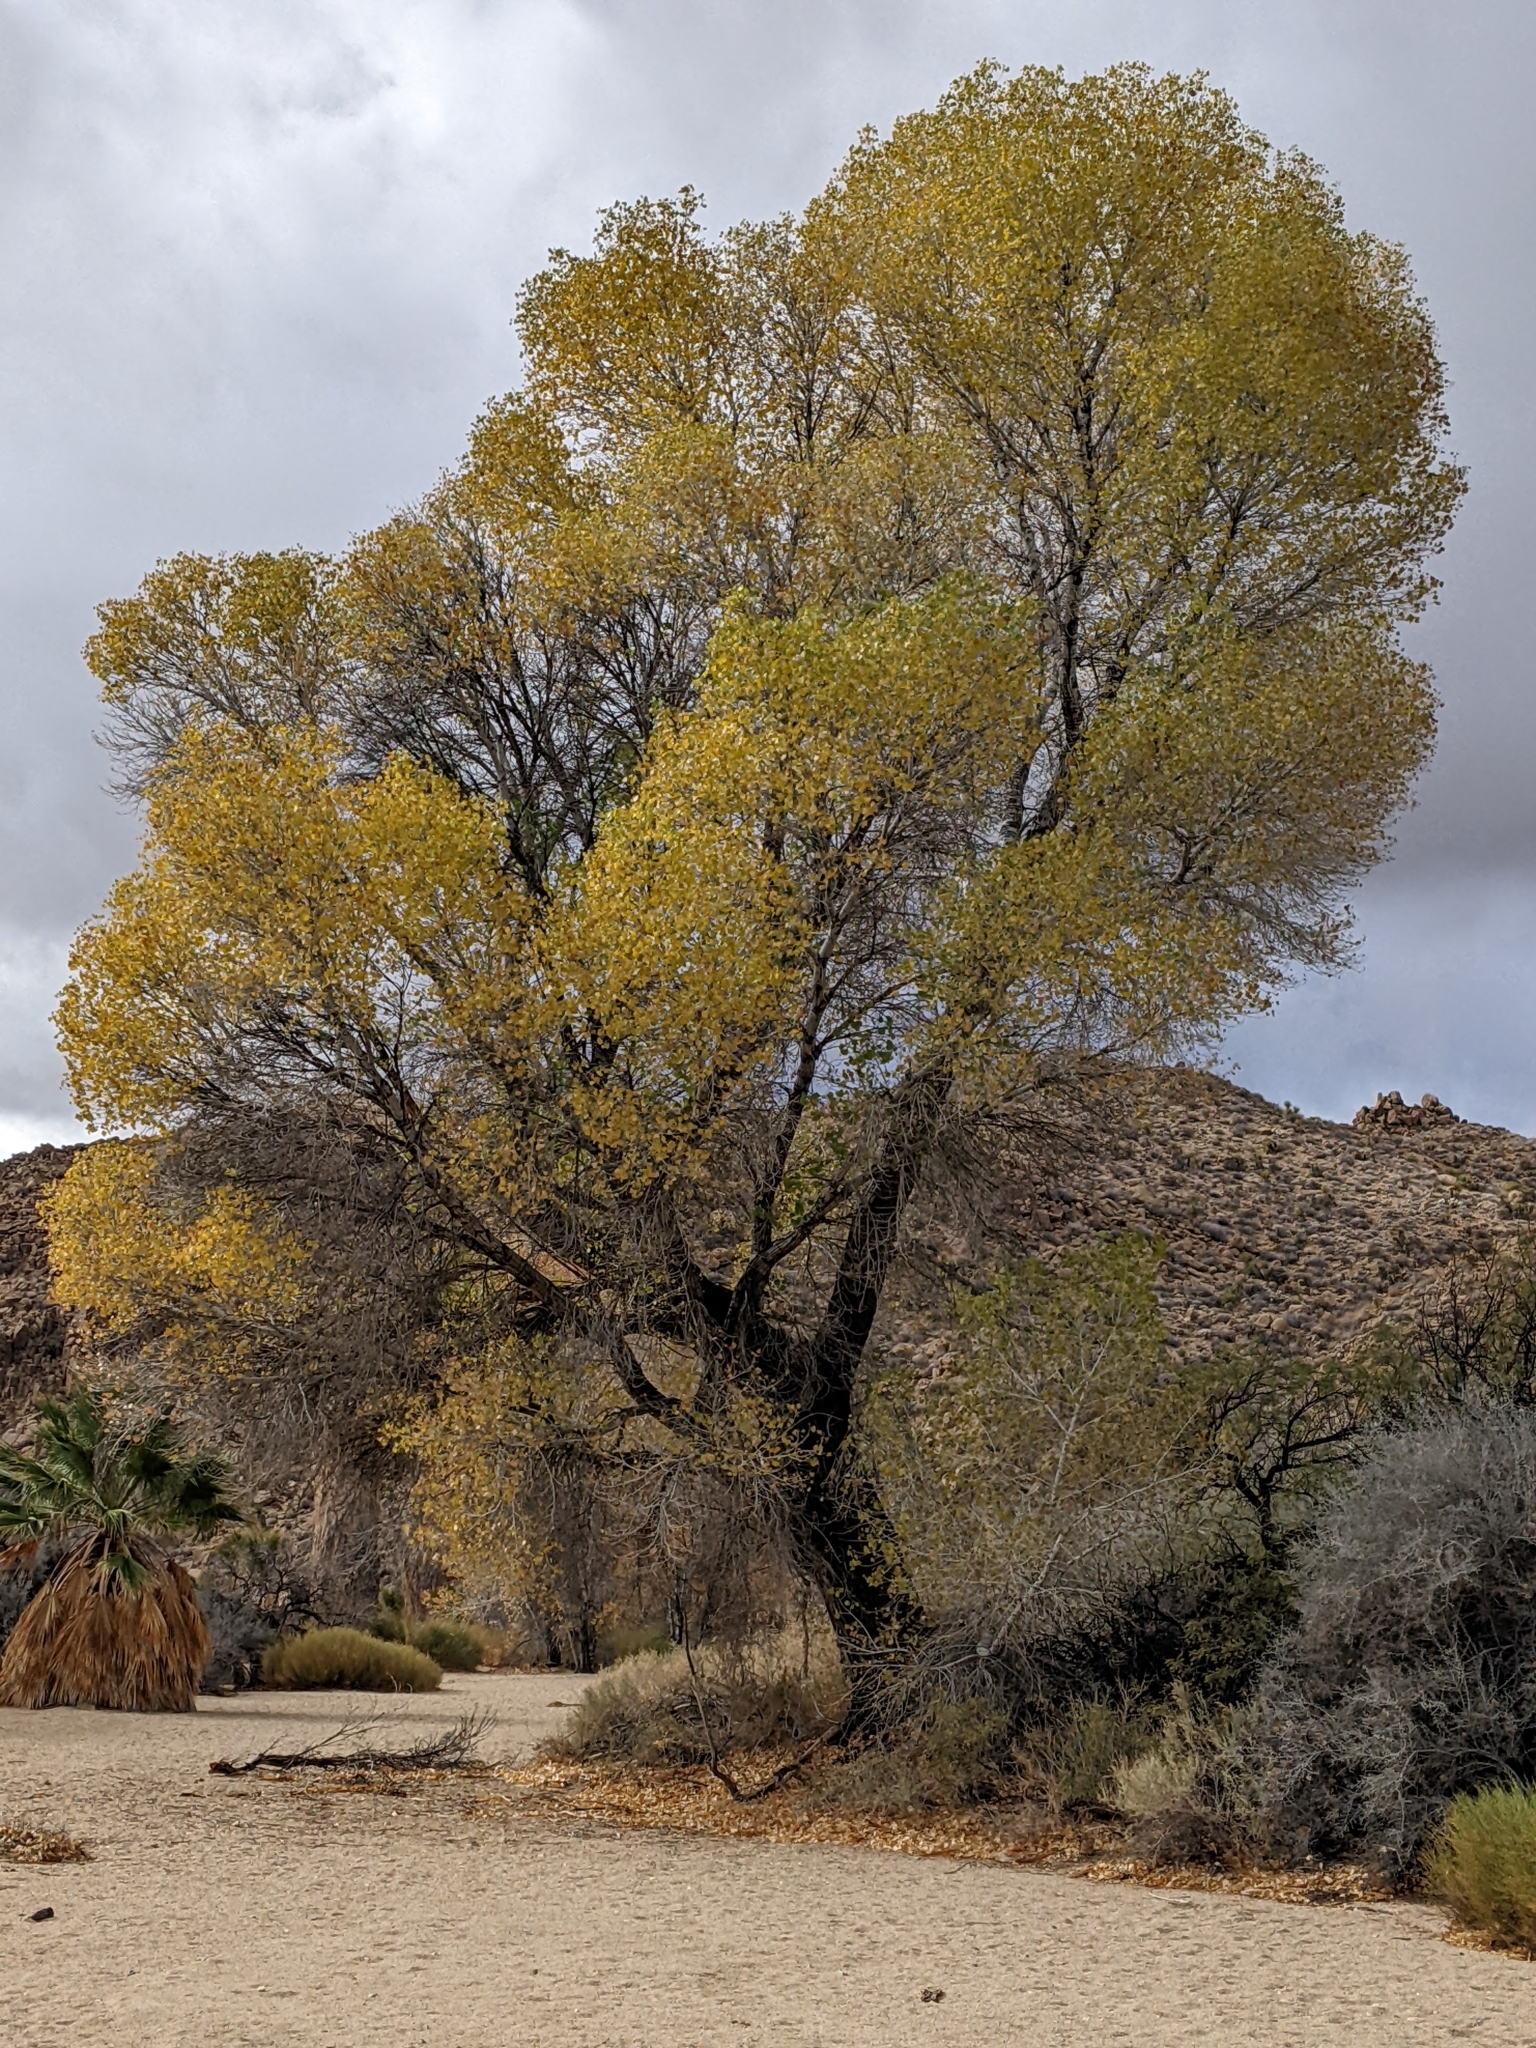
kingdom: Plantae
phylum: Tracheophyta
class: Magnoliopsida
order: Malpighiales
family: Salicaceae
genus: Populus
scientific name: Populus fremontii
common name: Fremont's cottonwood
